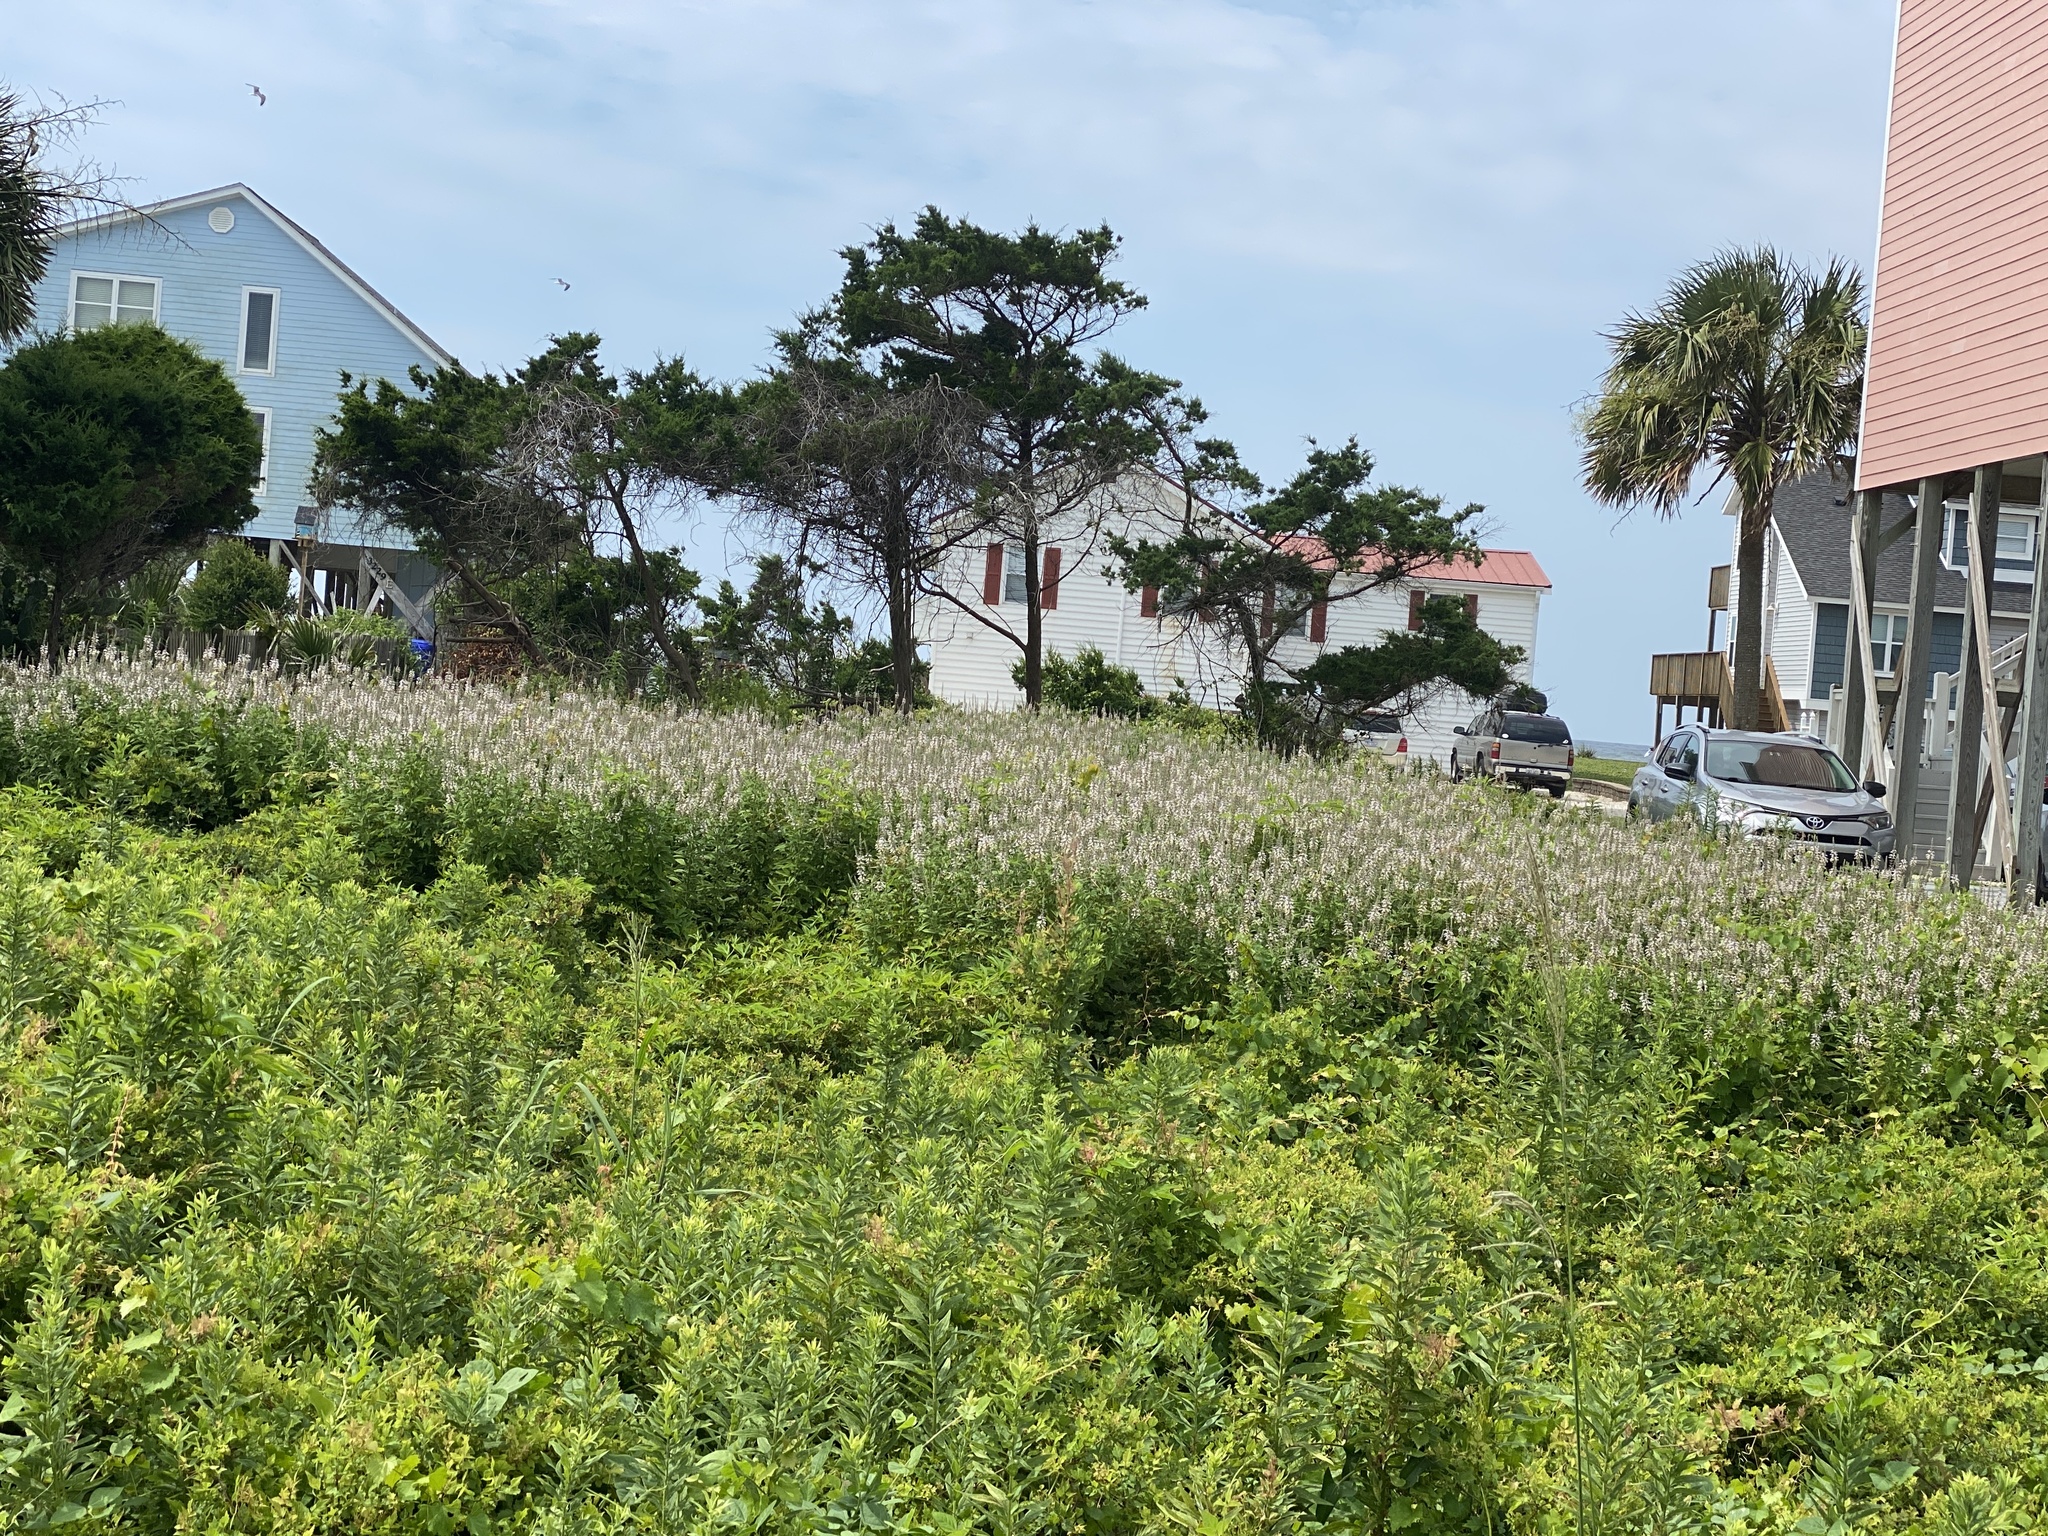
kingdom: Plantae
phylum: Tracheophyta
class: Magnoliopsida
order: Lamiales
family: Lamiaceae
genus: Teucrium
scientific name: Teucrium canadense
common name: American germander
